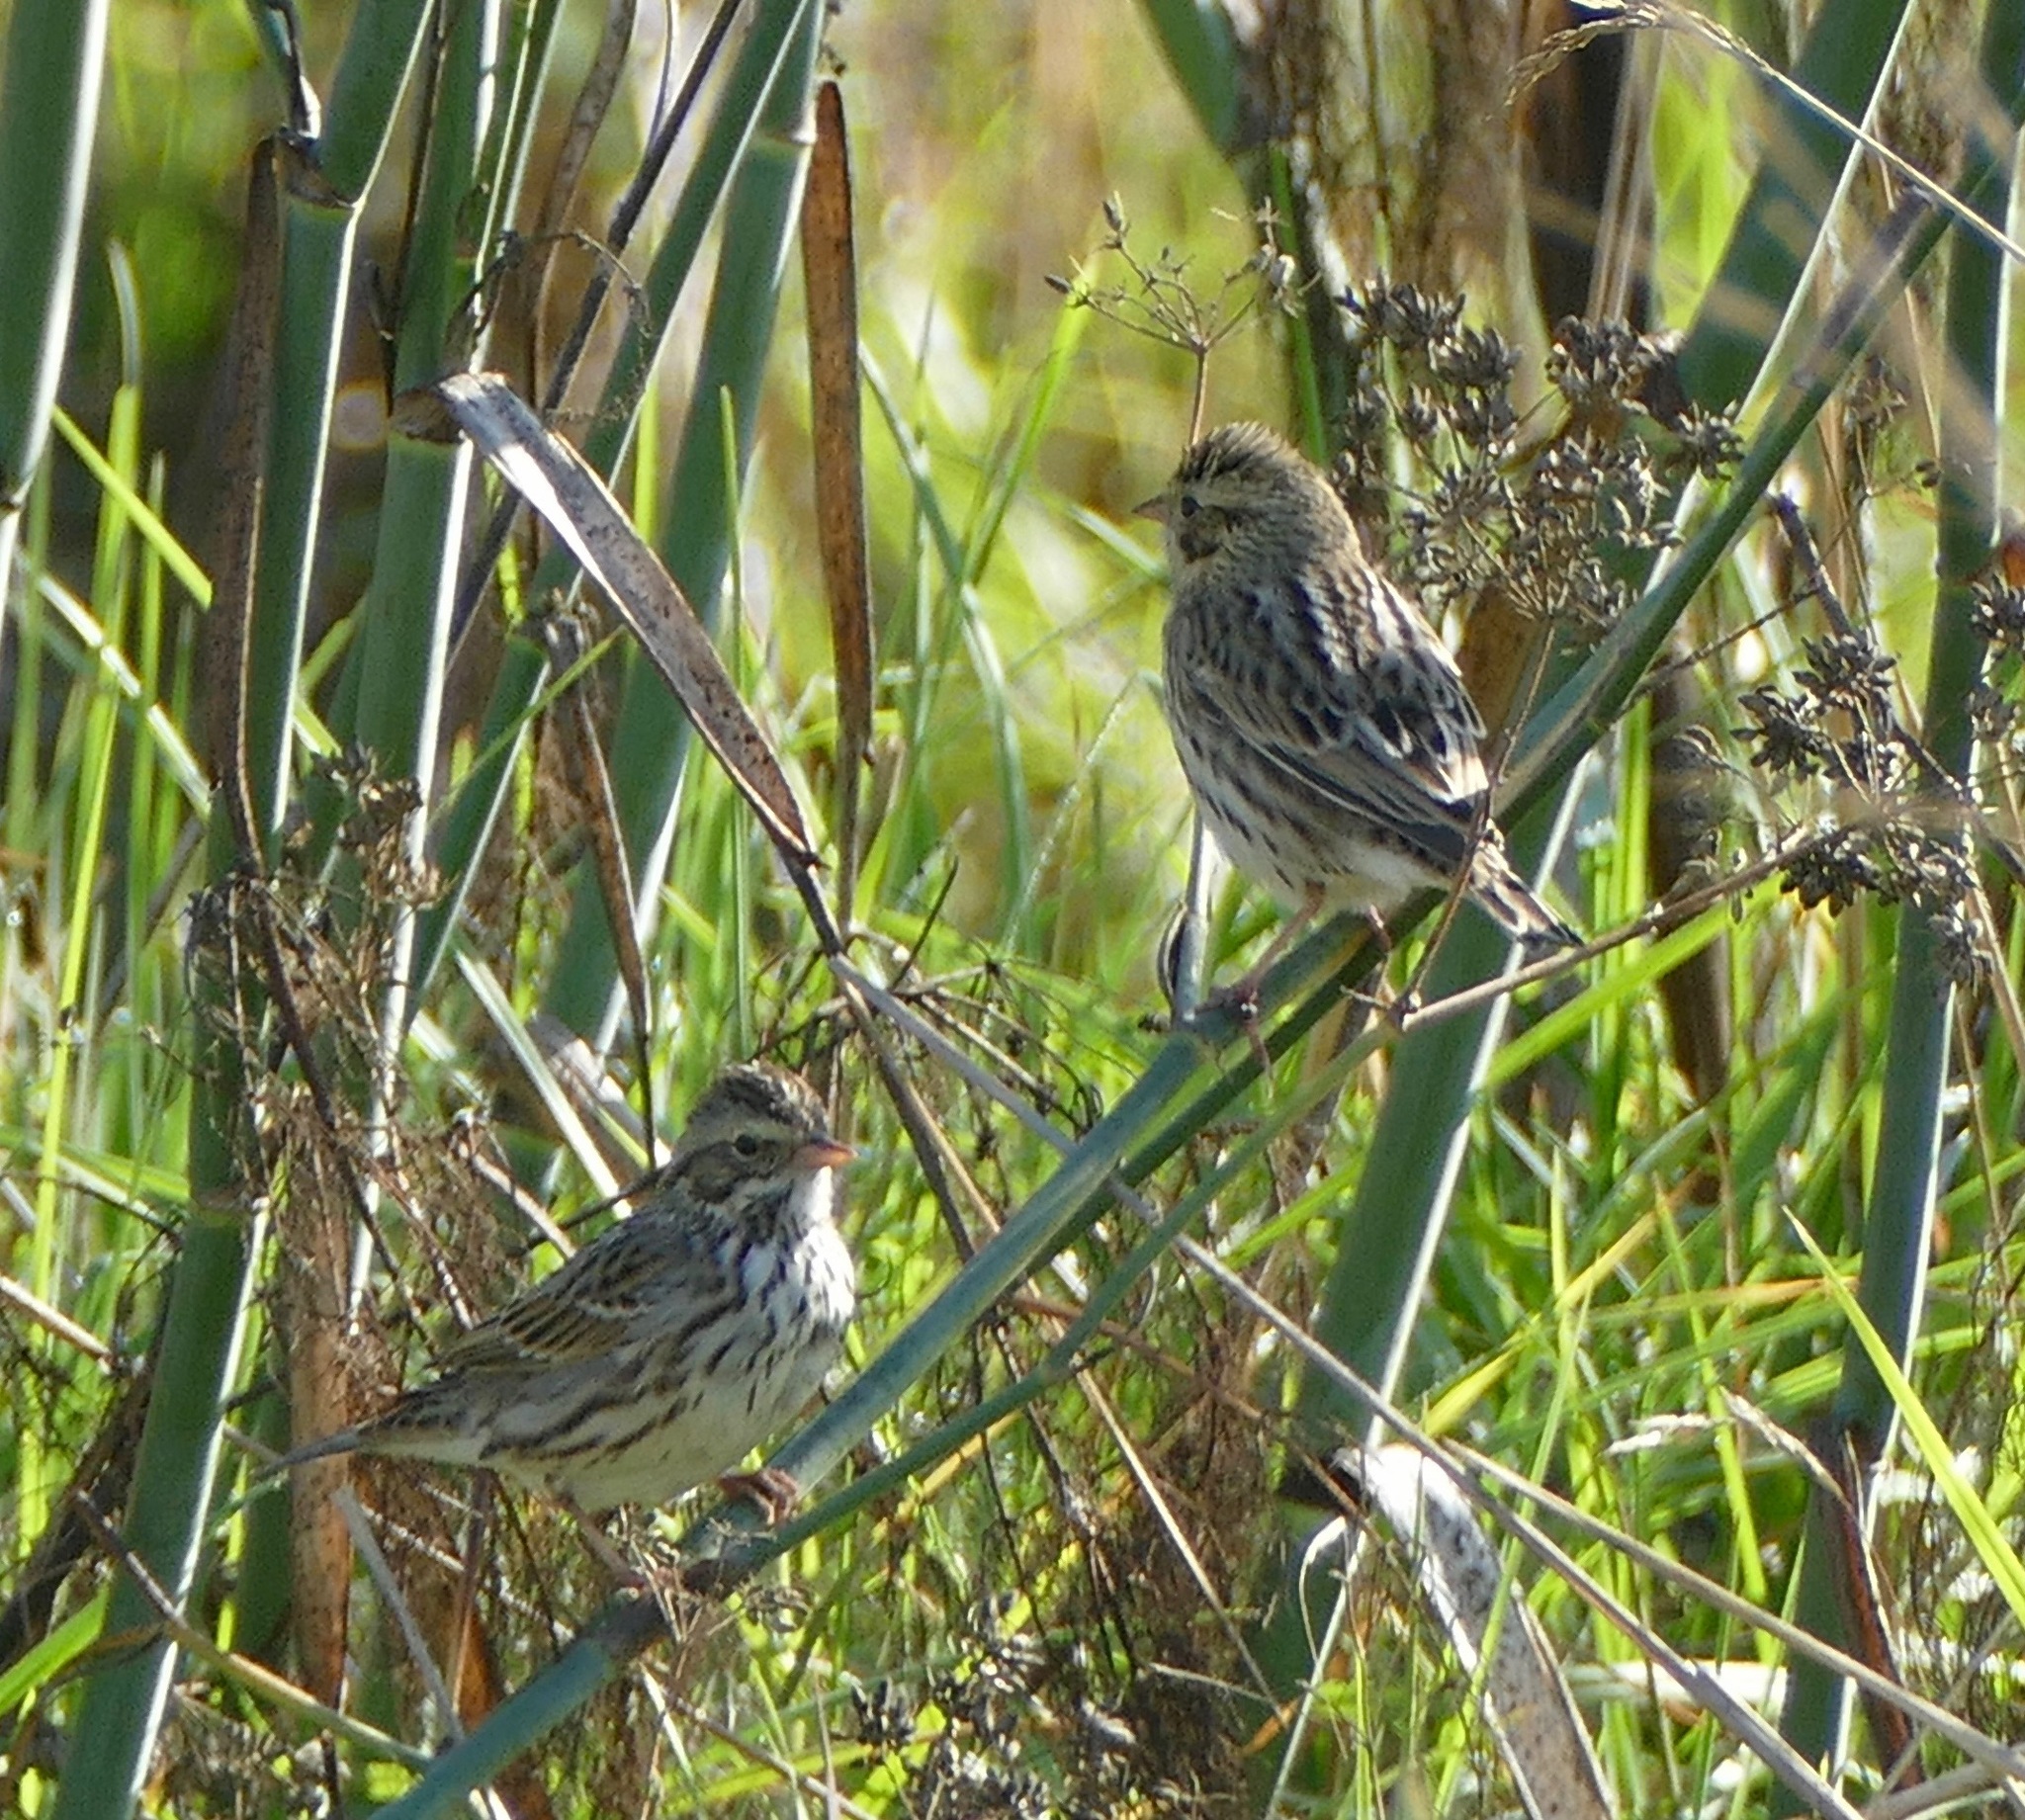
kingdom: Animalia
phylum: Chordata
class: Aves
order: Passeriformes
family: Passerellidae
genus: Passerculus
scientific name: Passerculus sandwichensis
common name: Savannah sparrow
